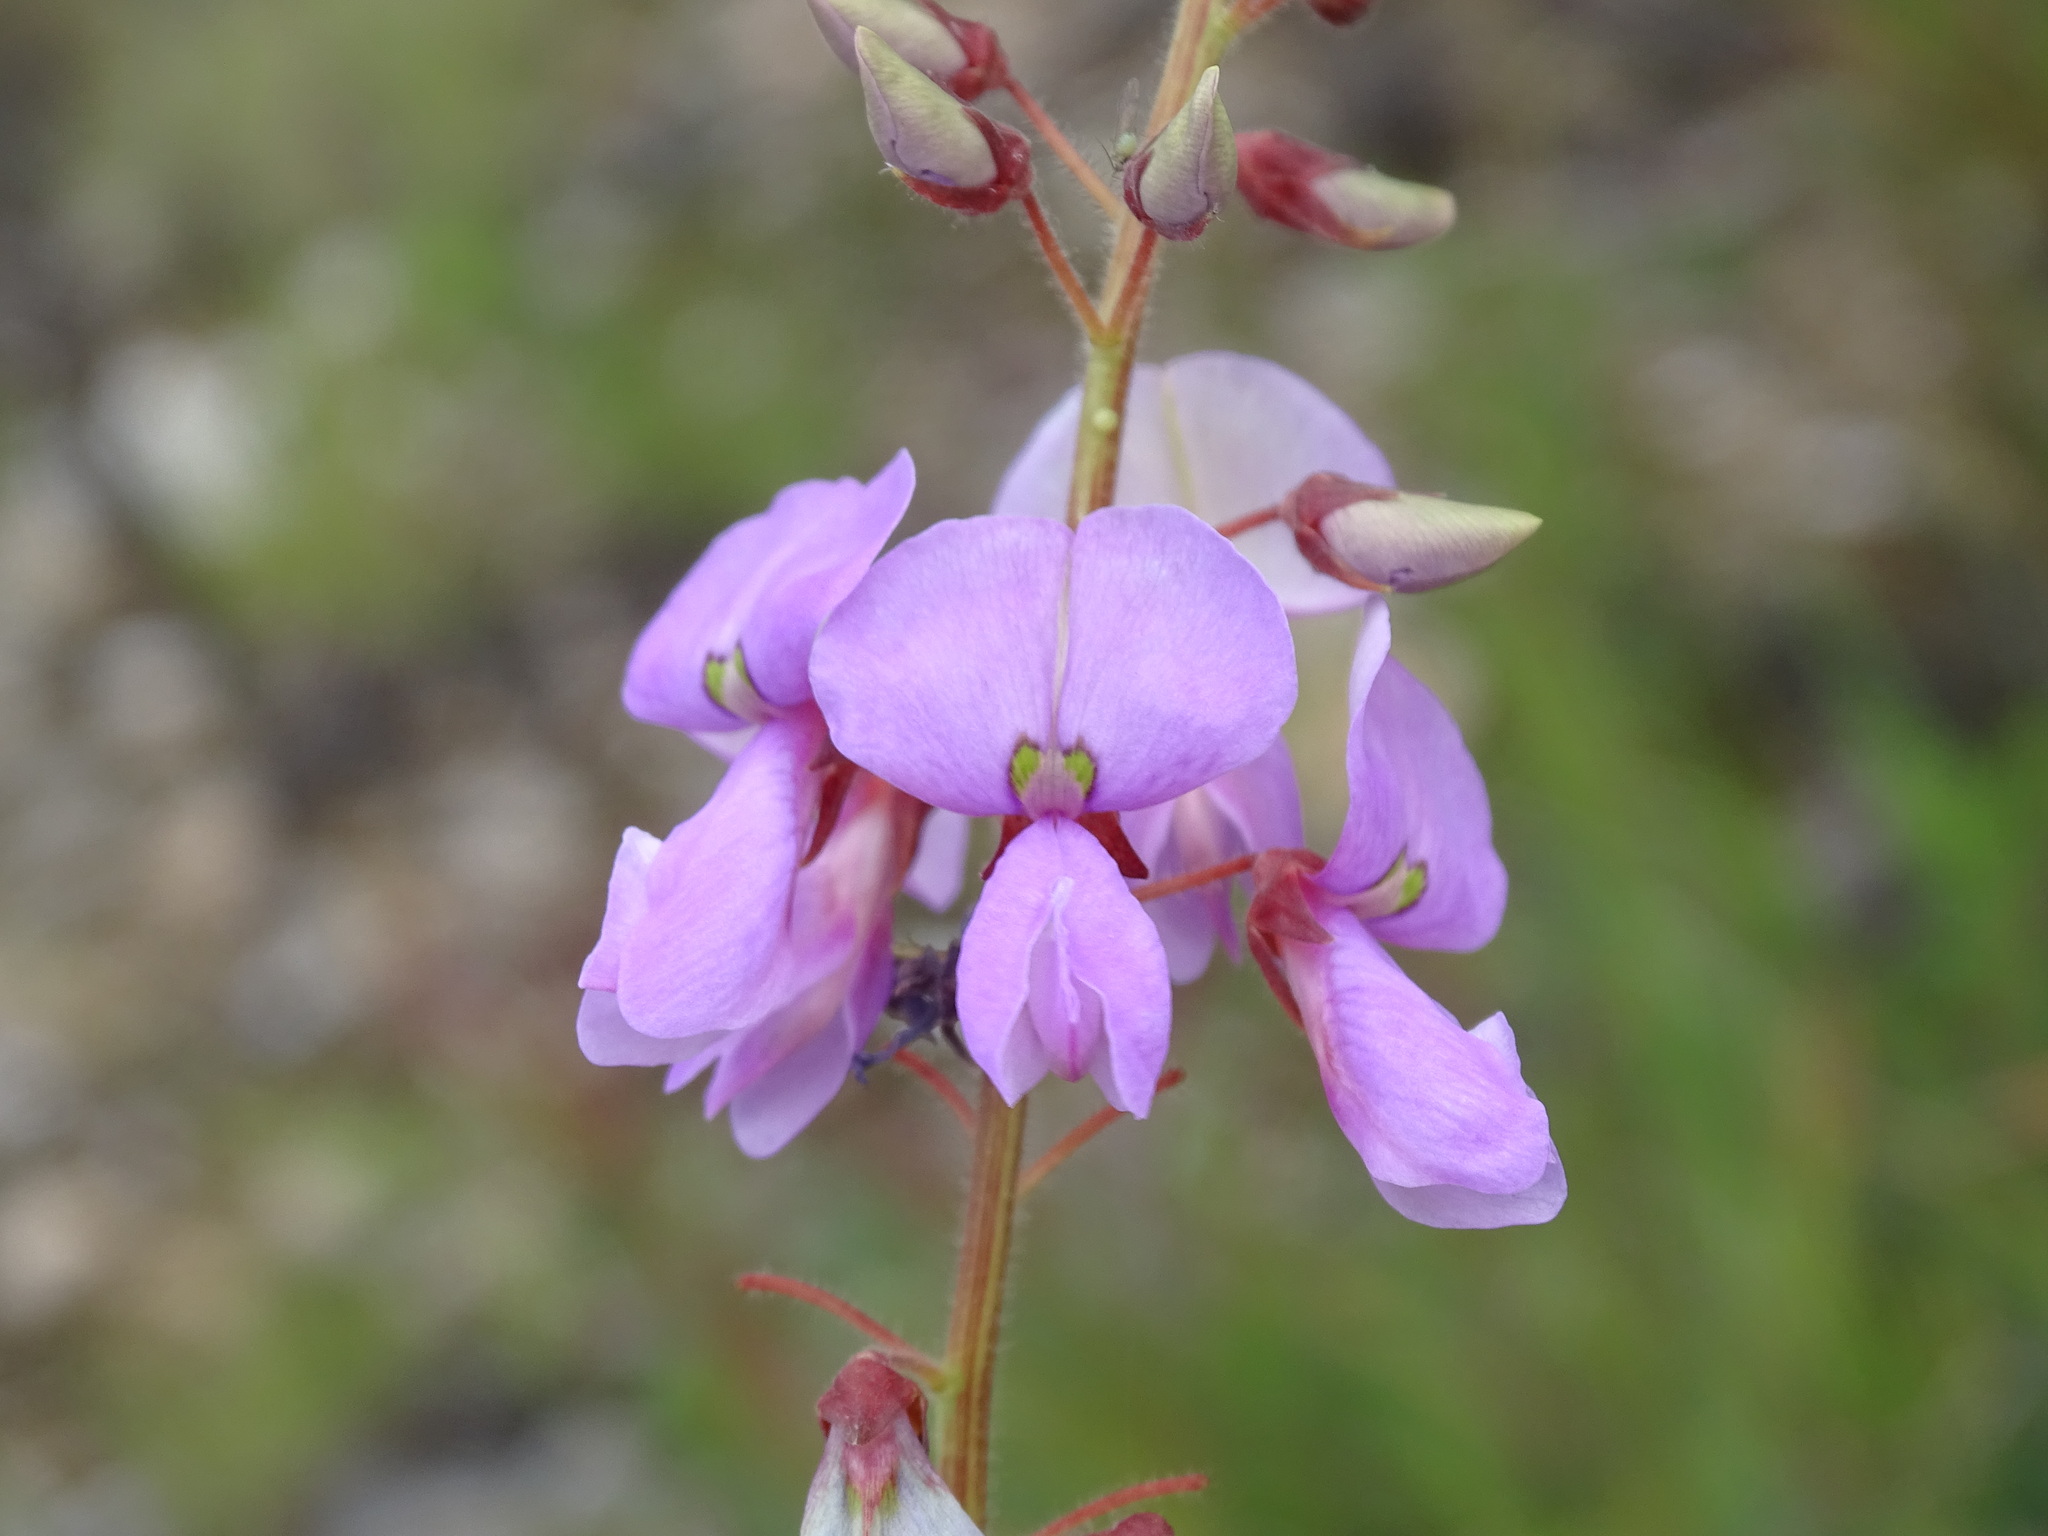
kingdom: Plantae
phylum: Tracheophyta
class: Magnoliopsida
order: Fabales
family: Fabaceae
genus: Desmodium
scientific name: Desmodium hartwegianum
